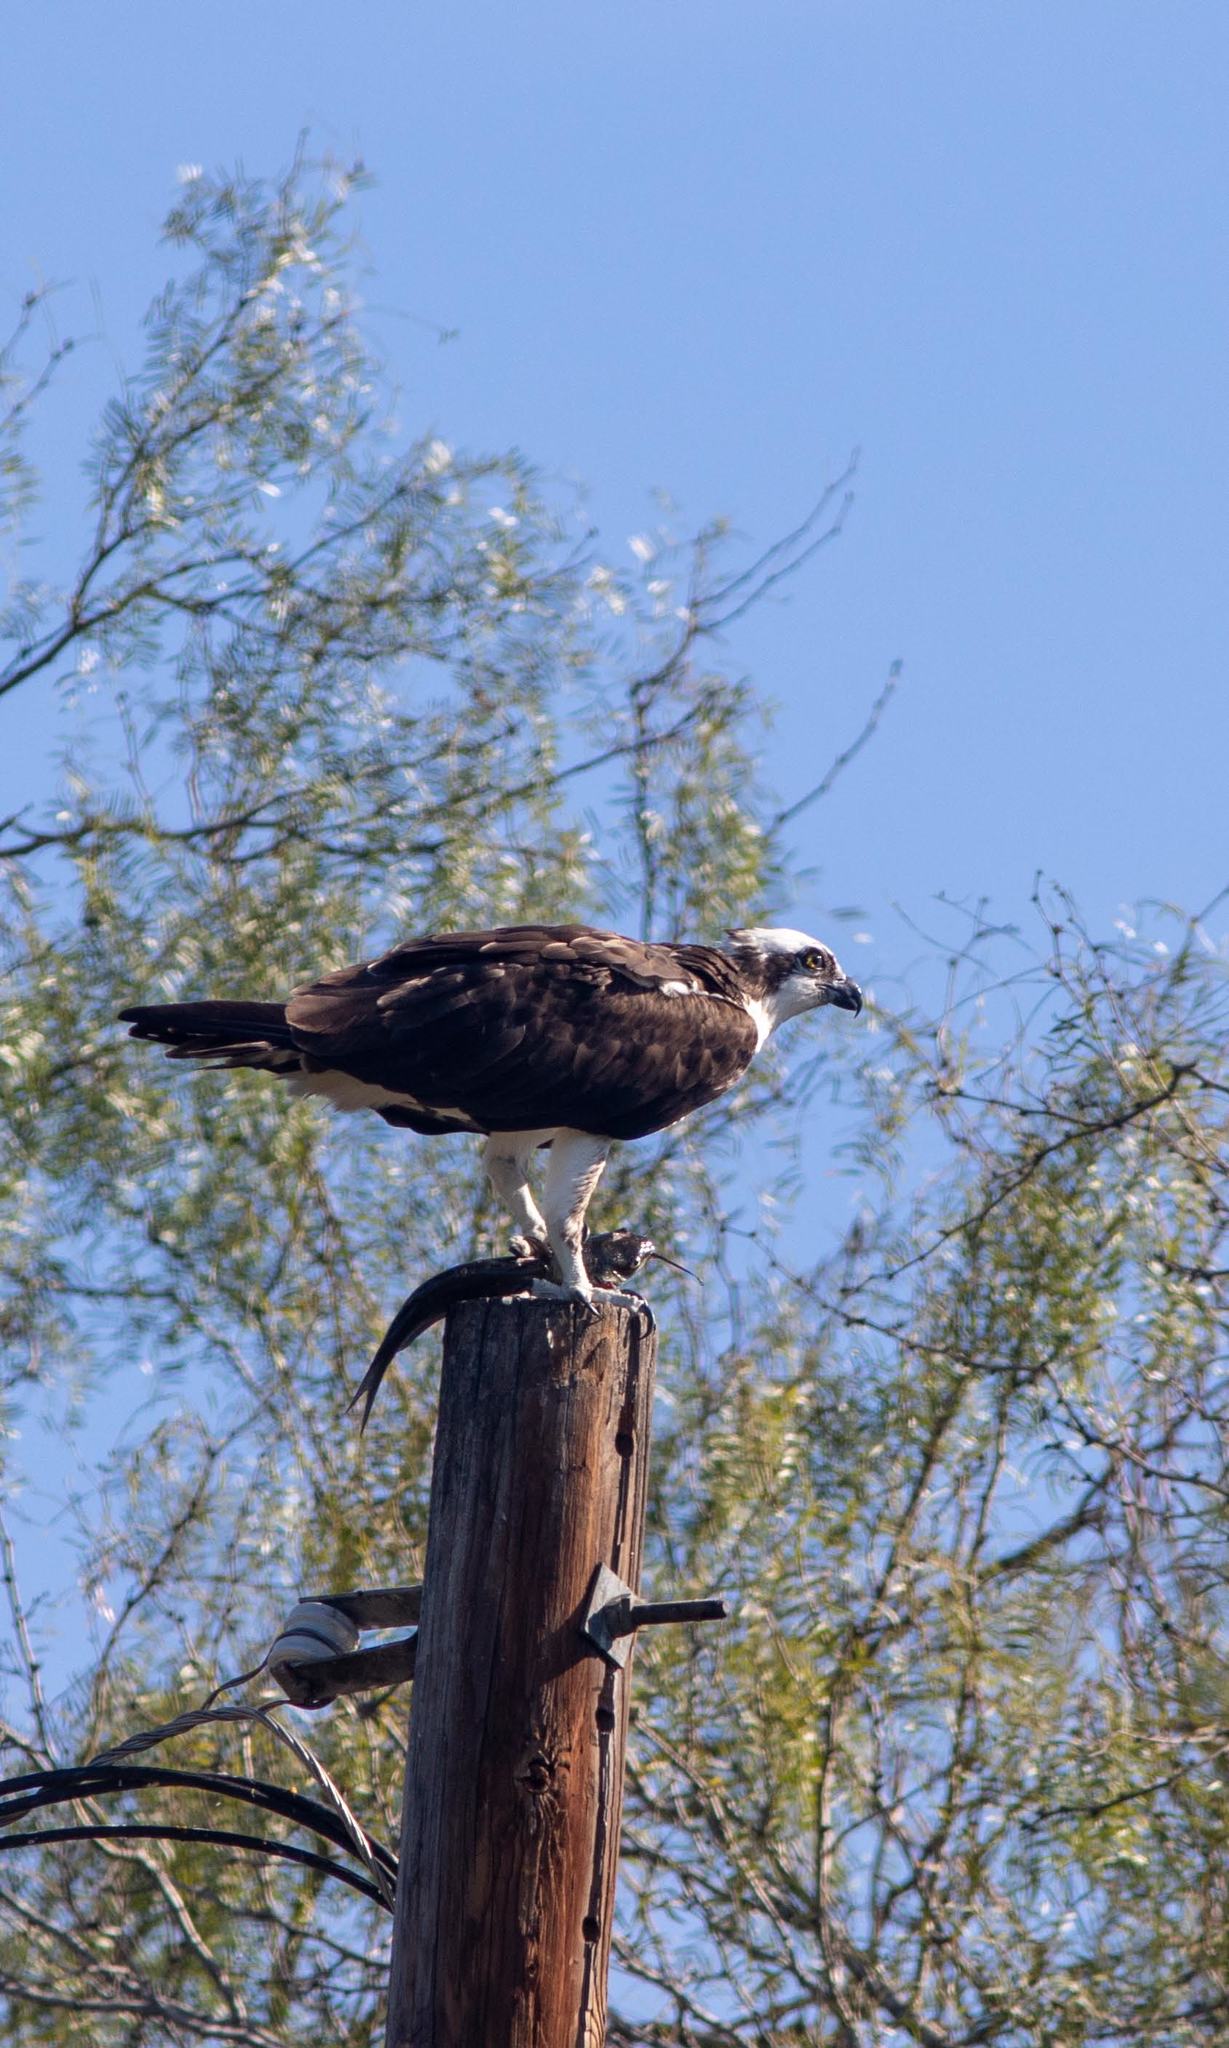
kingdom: Animalia
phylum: Chordata
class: Aves
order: Accipitriformes
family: Pandionidae
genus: Pandion
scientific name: Pandion haliaetus
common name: Osprey
